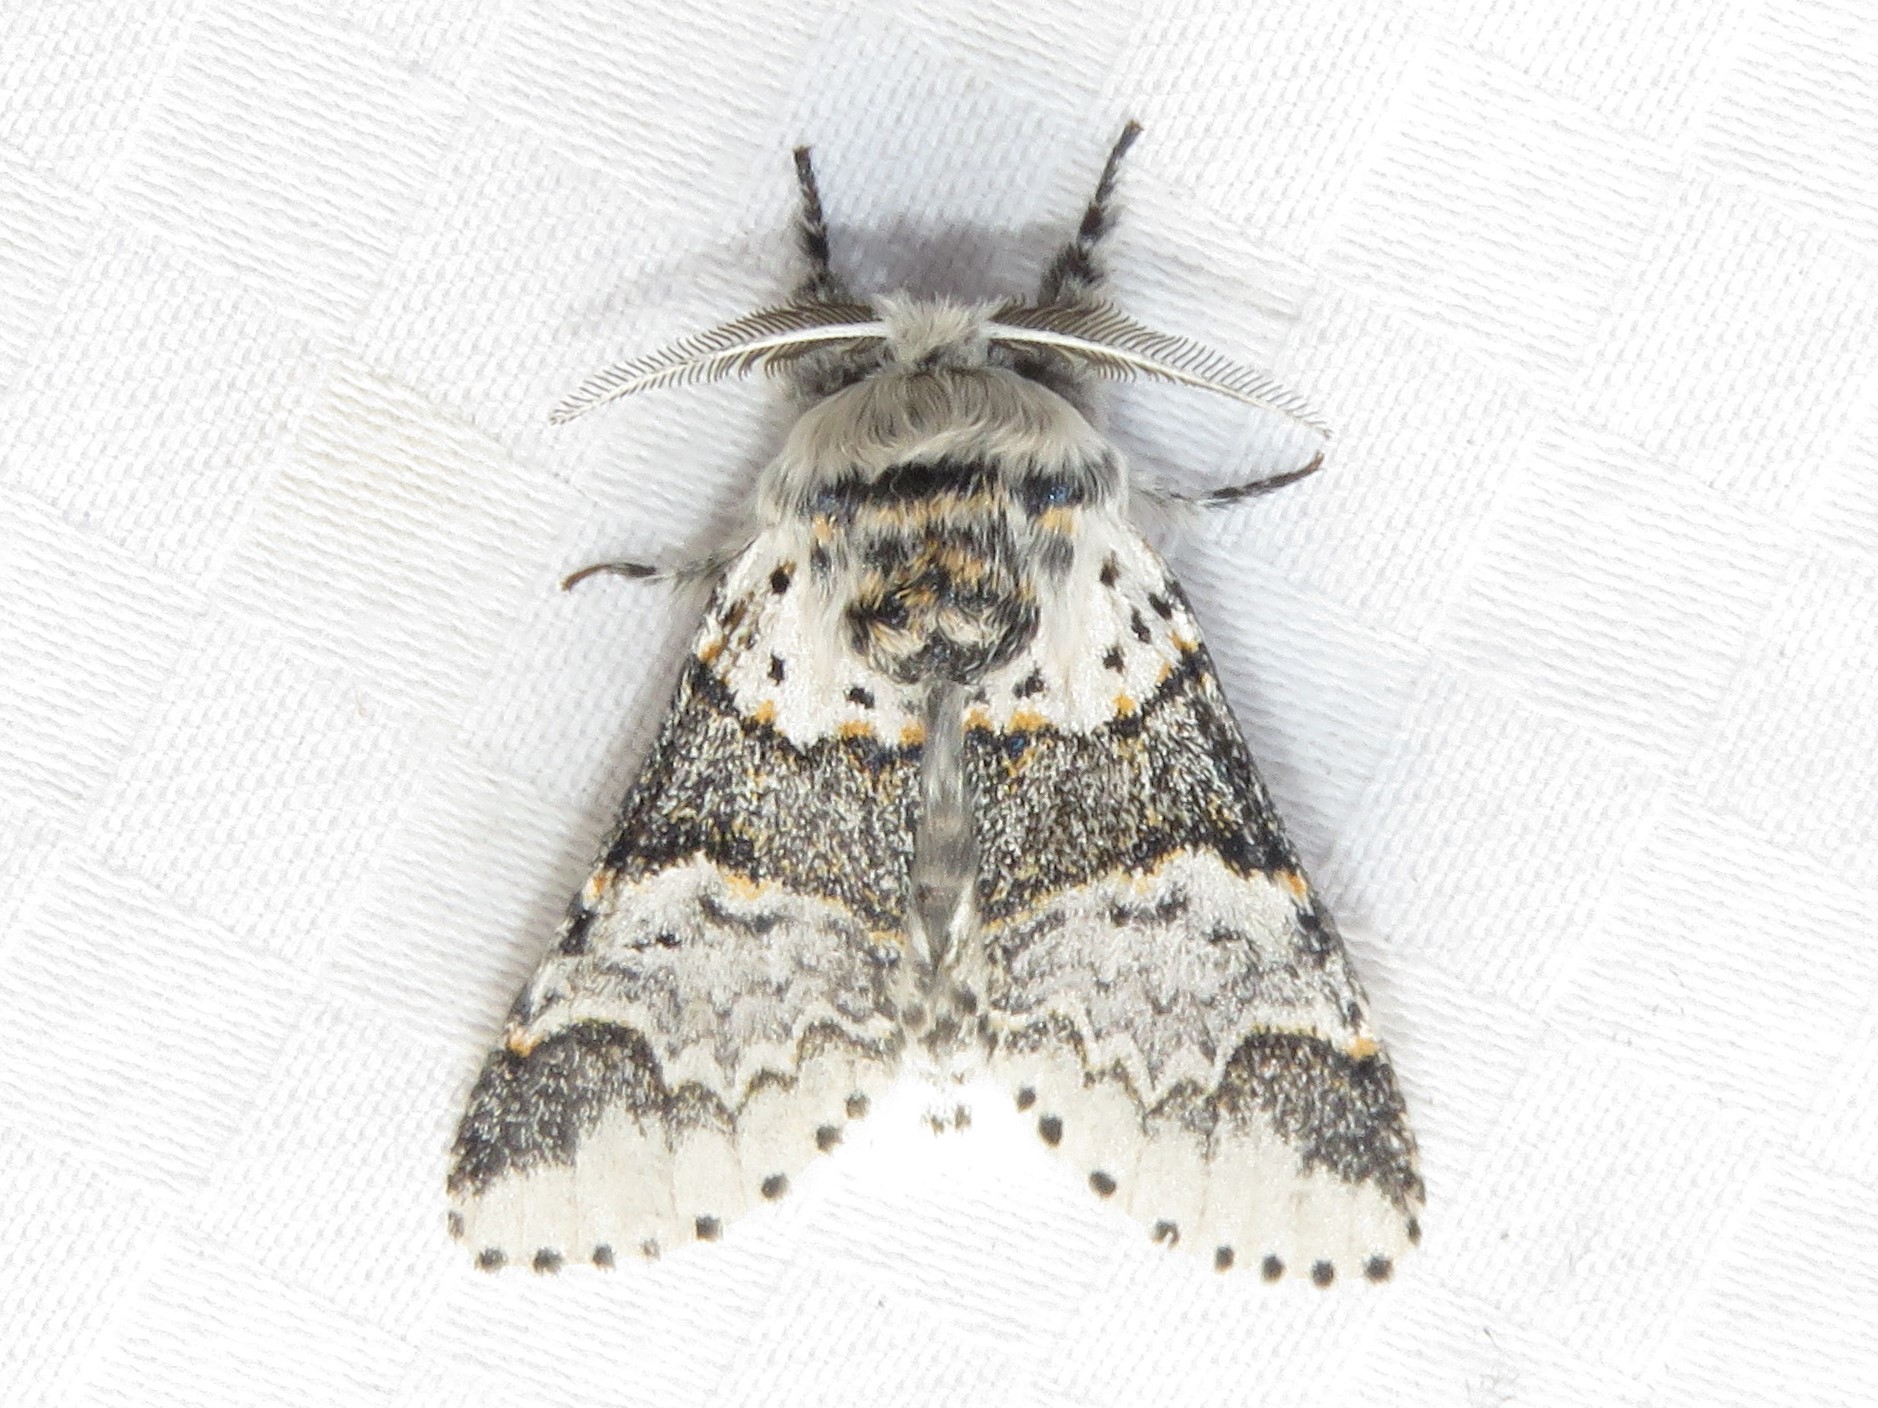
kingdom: Animalia
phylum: Arthropoda
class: Insecta
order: Lepidoptera
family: Notodontidae
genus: Furcula
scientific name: Furcula occidentalis
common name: Western furcula moth
